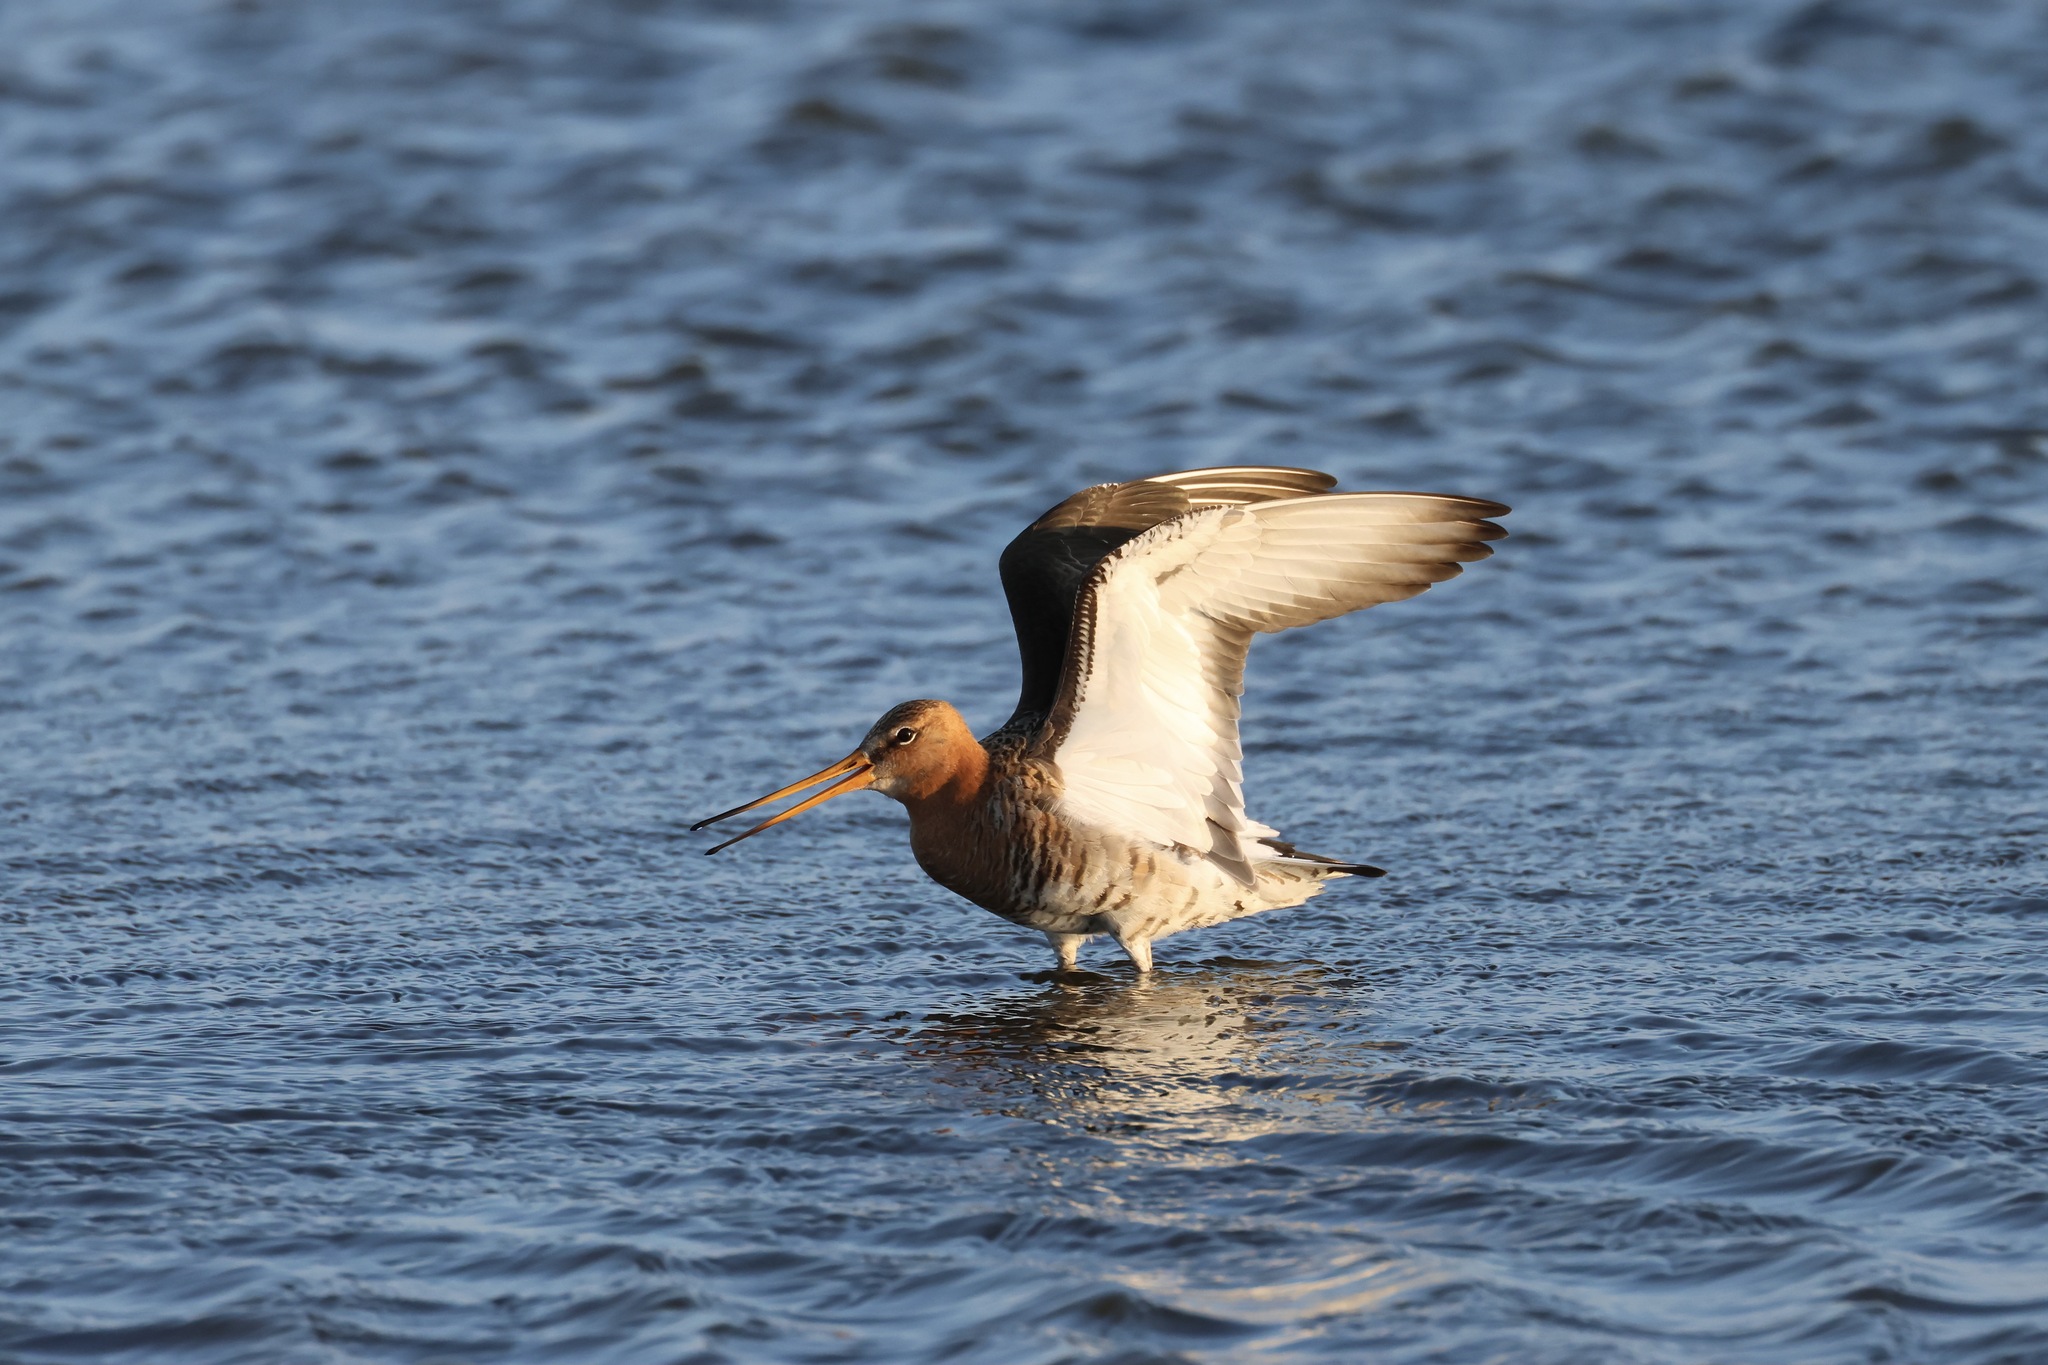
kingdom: Animalia
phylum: Chordata
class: Aves
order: Charadriiformes
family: Scolopacidae
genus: Limosa
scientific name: Limosa limosa
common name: Black-tailed godwit
